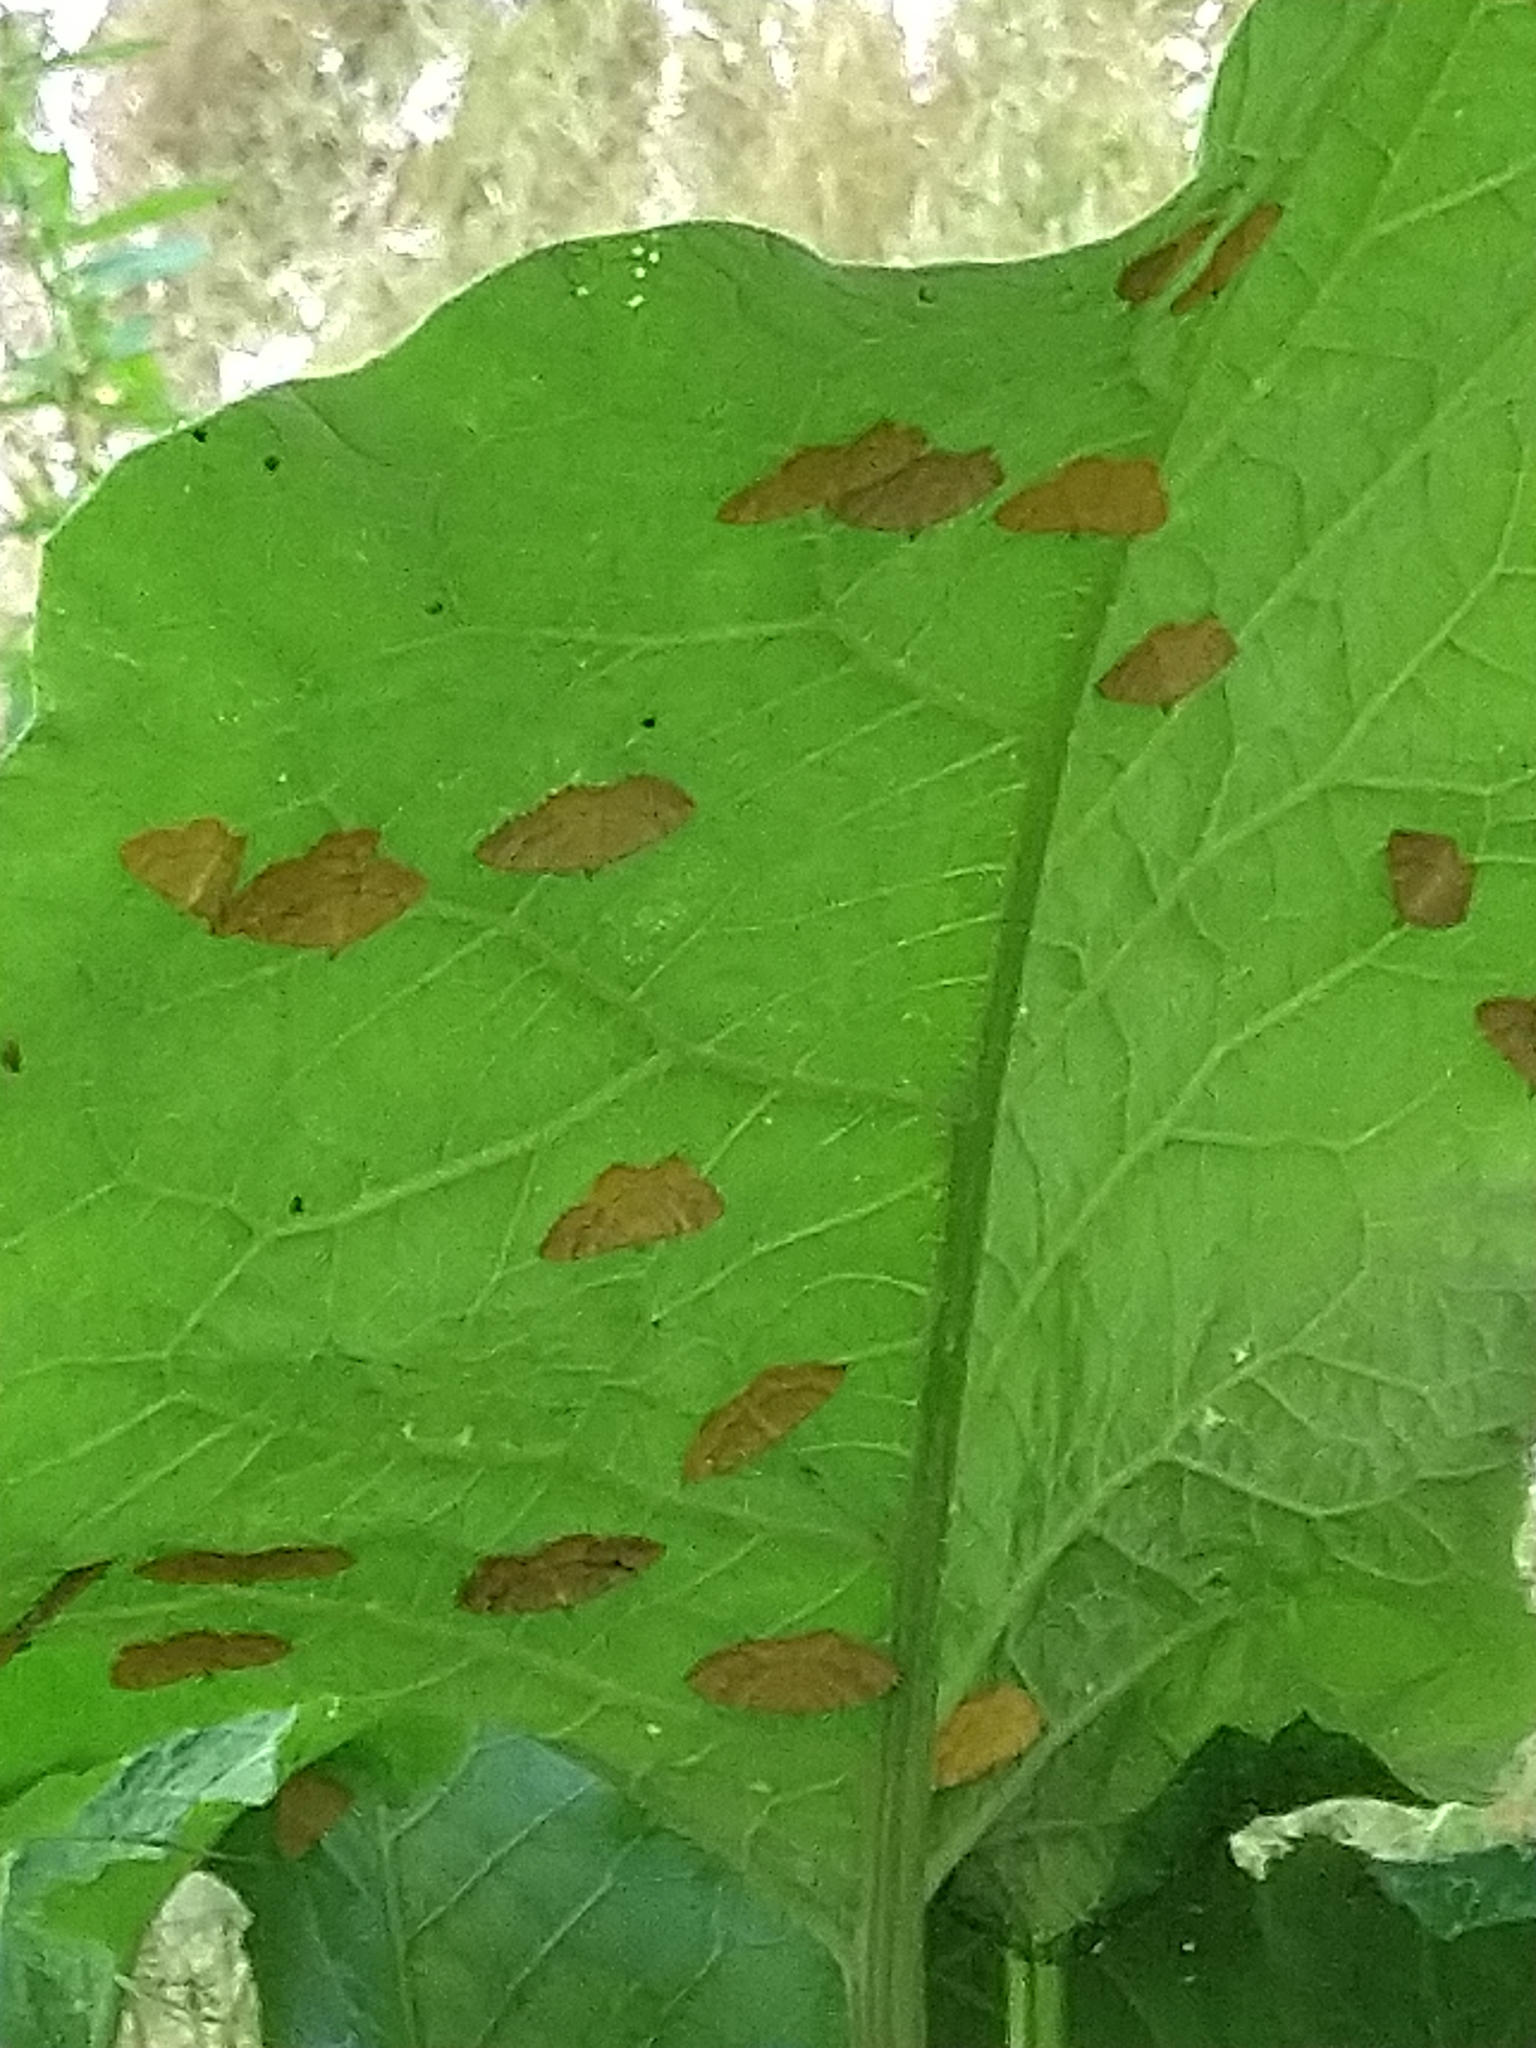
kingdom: Animalia
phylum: Arthropoda
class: Insecta
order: Lepidoptera
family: Geometridae
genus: Camptogramma
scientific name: Camptogramma bilineata
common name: Yellow shell
